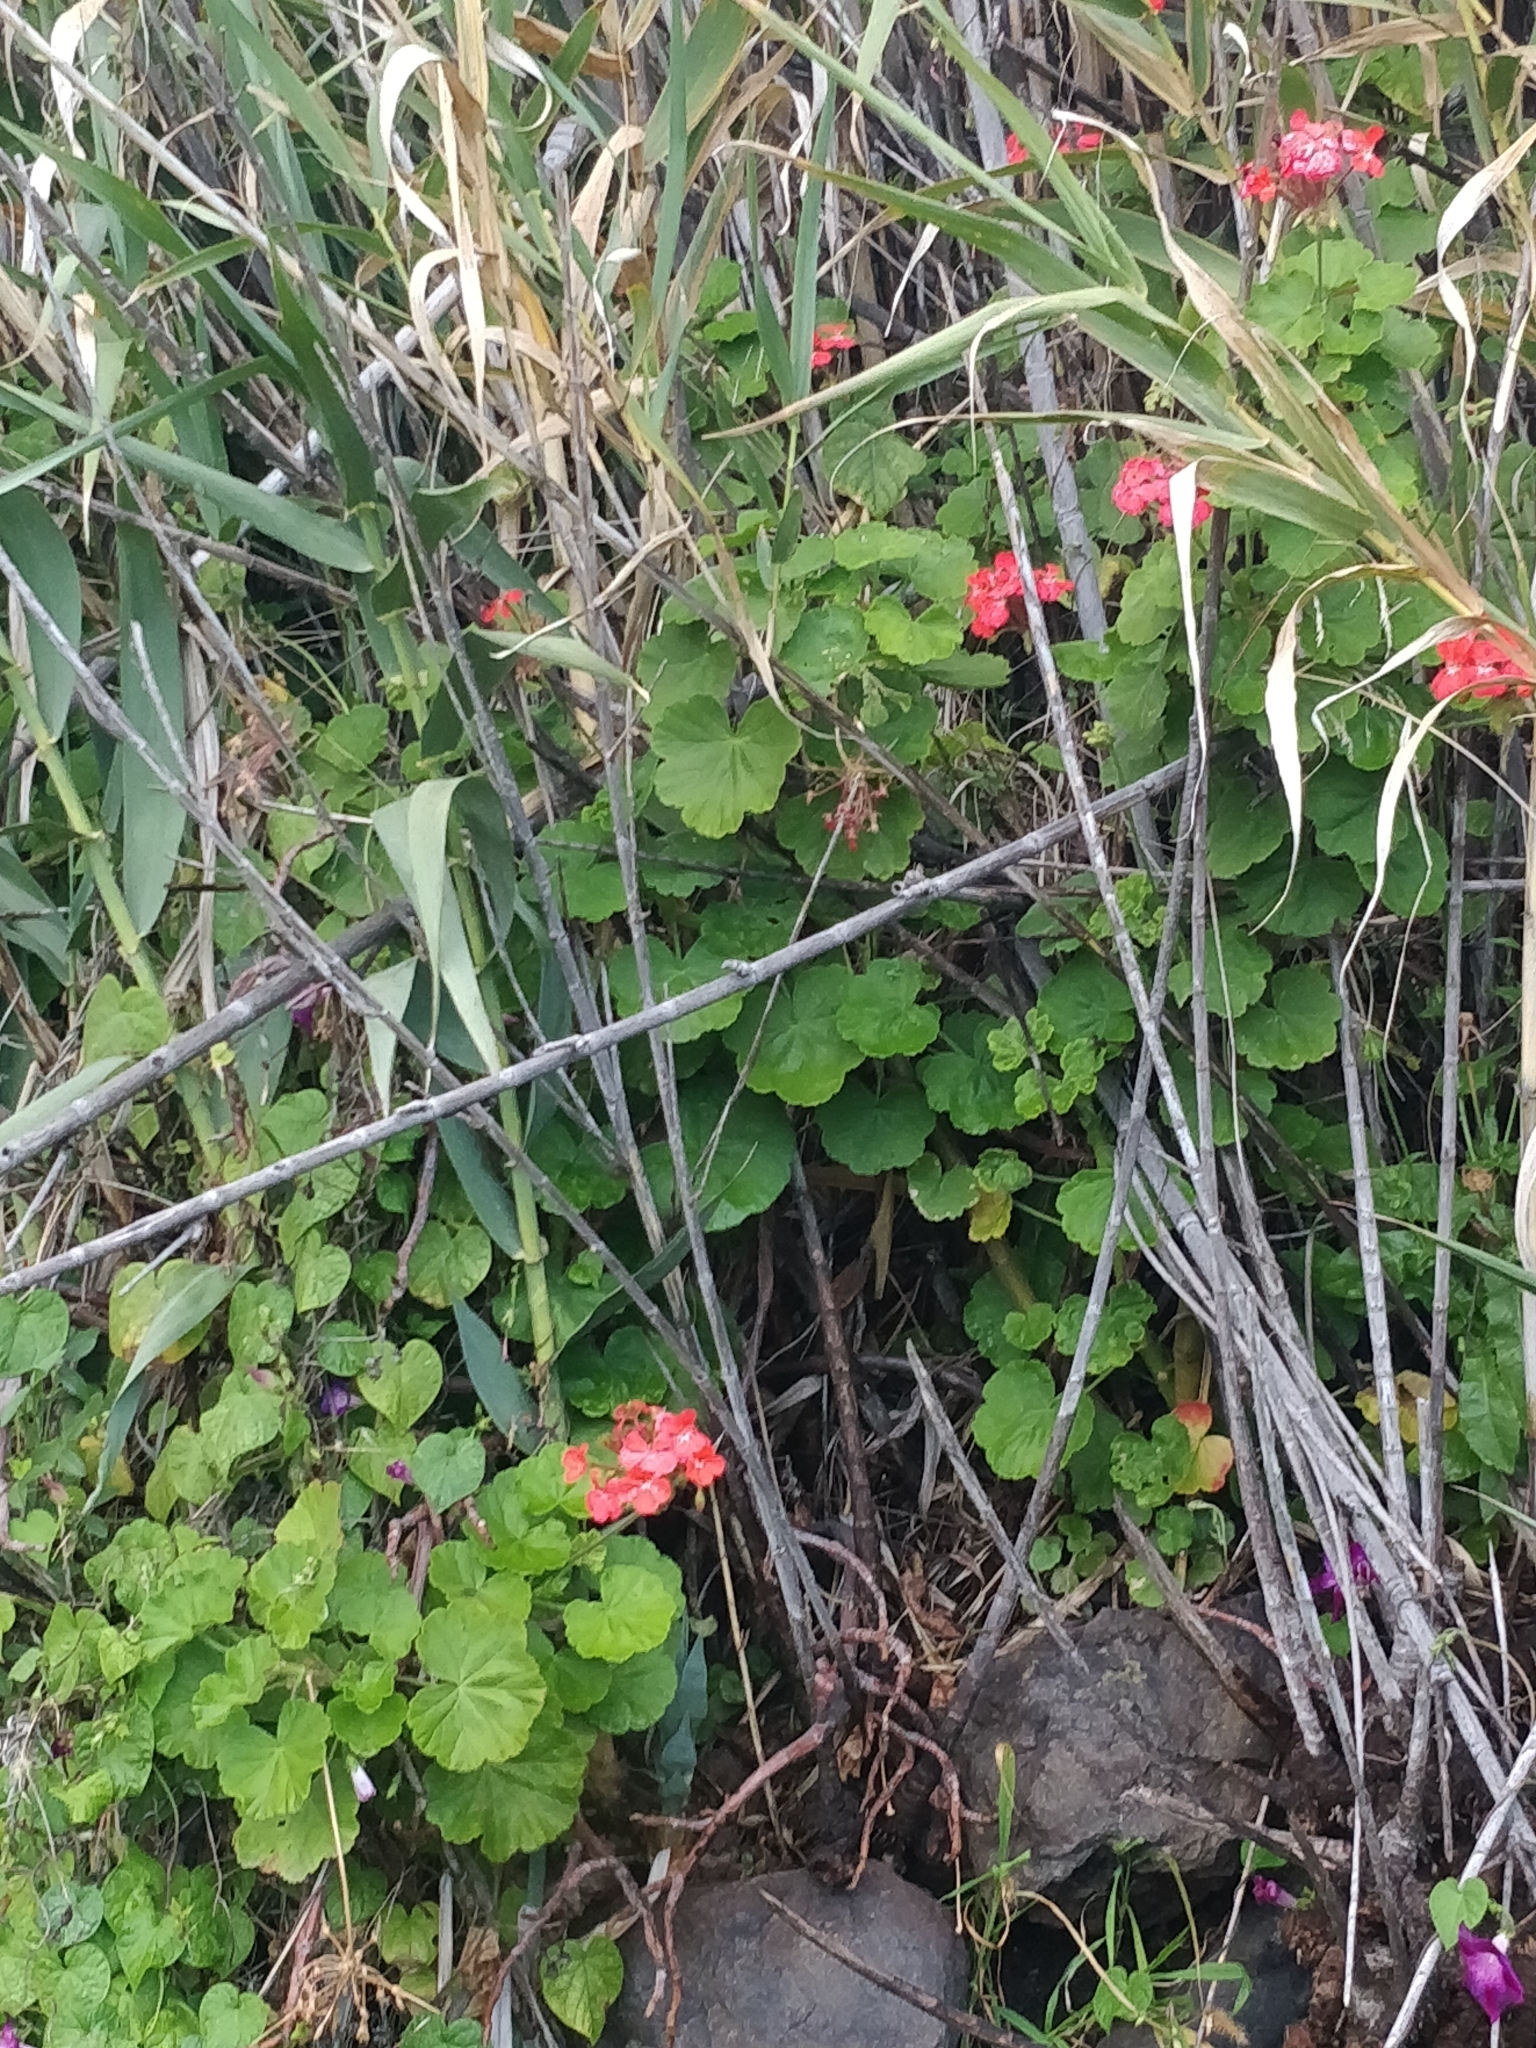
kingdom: Plantae
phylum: Tracheophyta
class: Magnoliopsida
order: Geraniales
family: Geraniaceae
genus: Pelargonium
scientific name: Pelargonium hybridum
